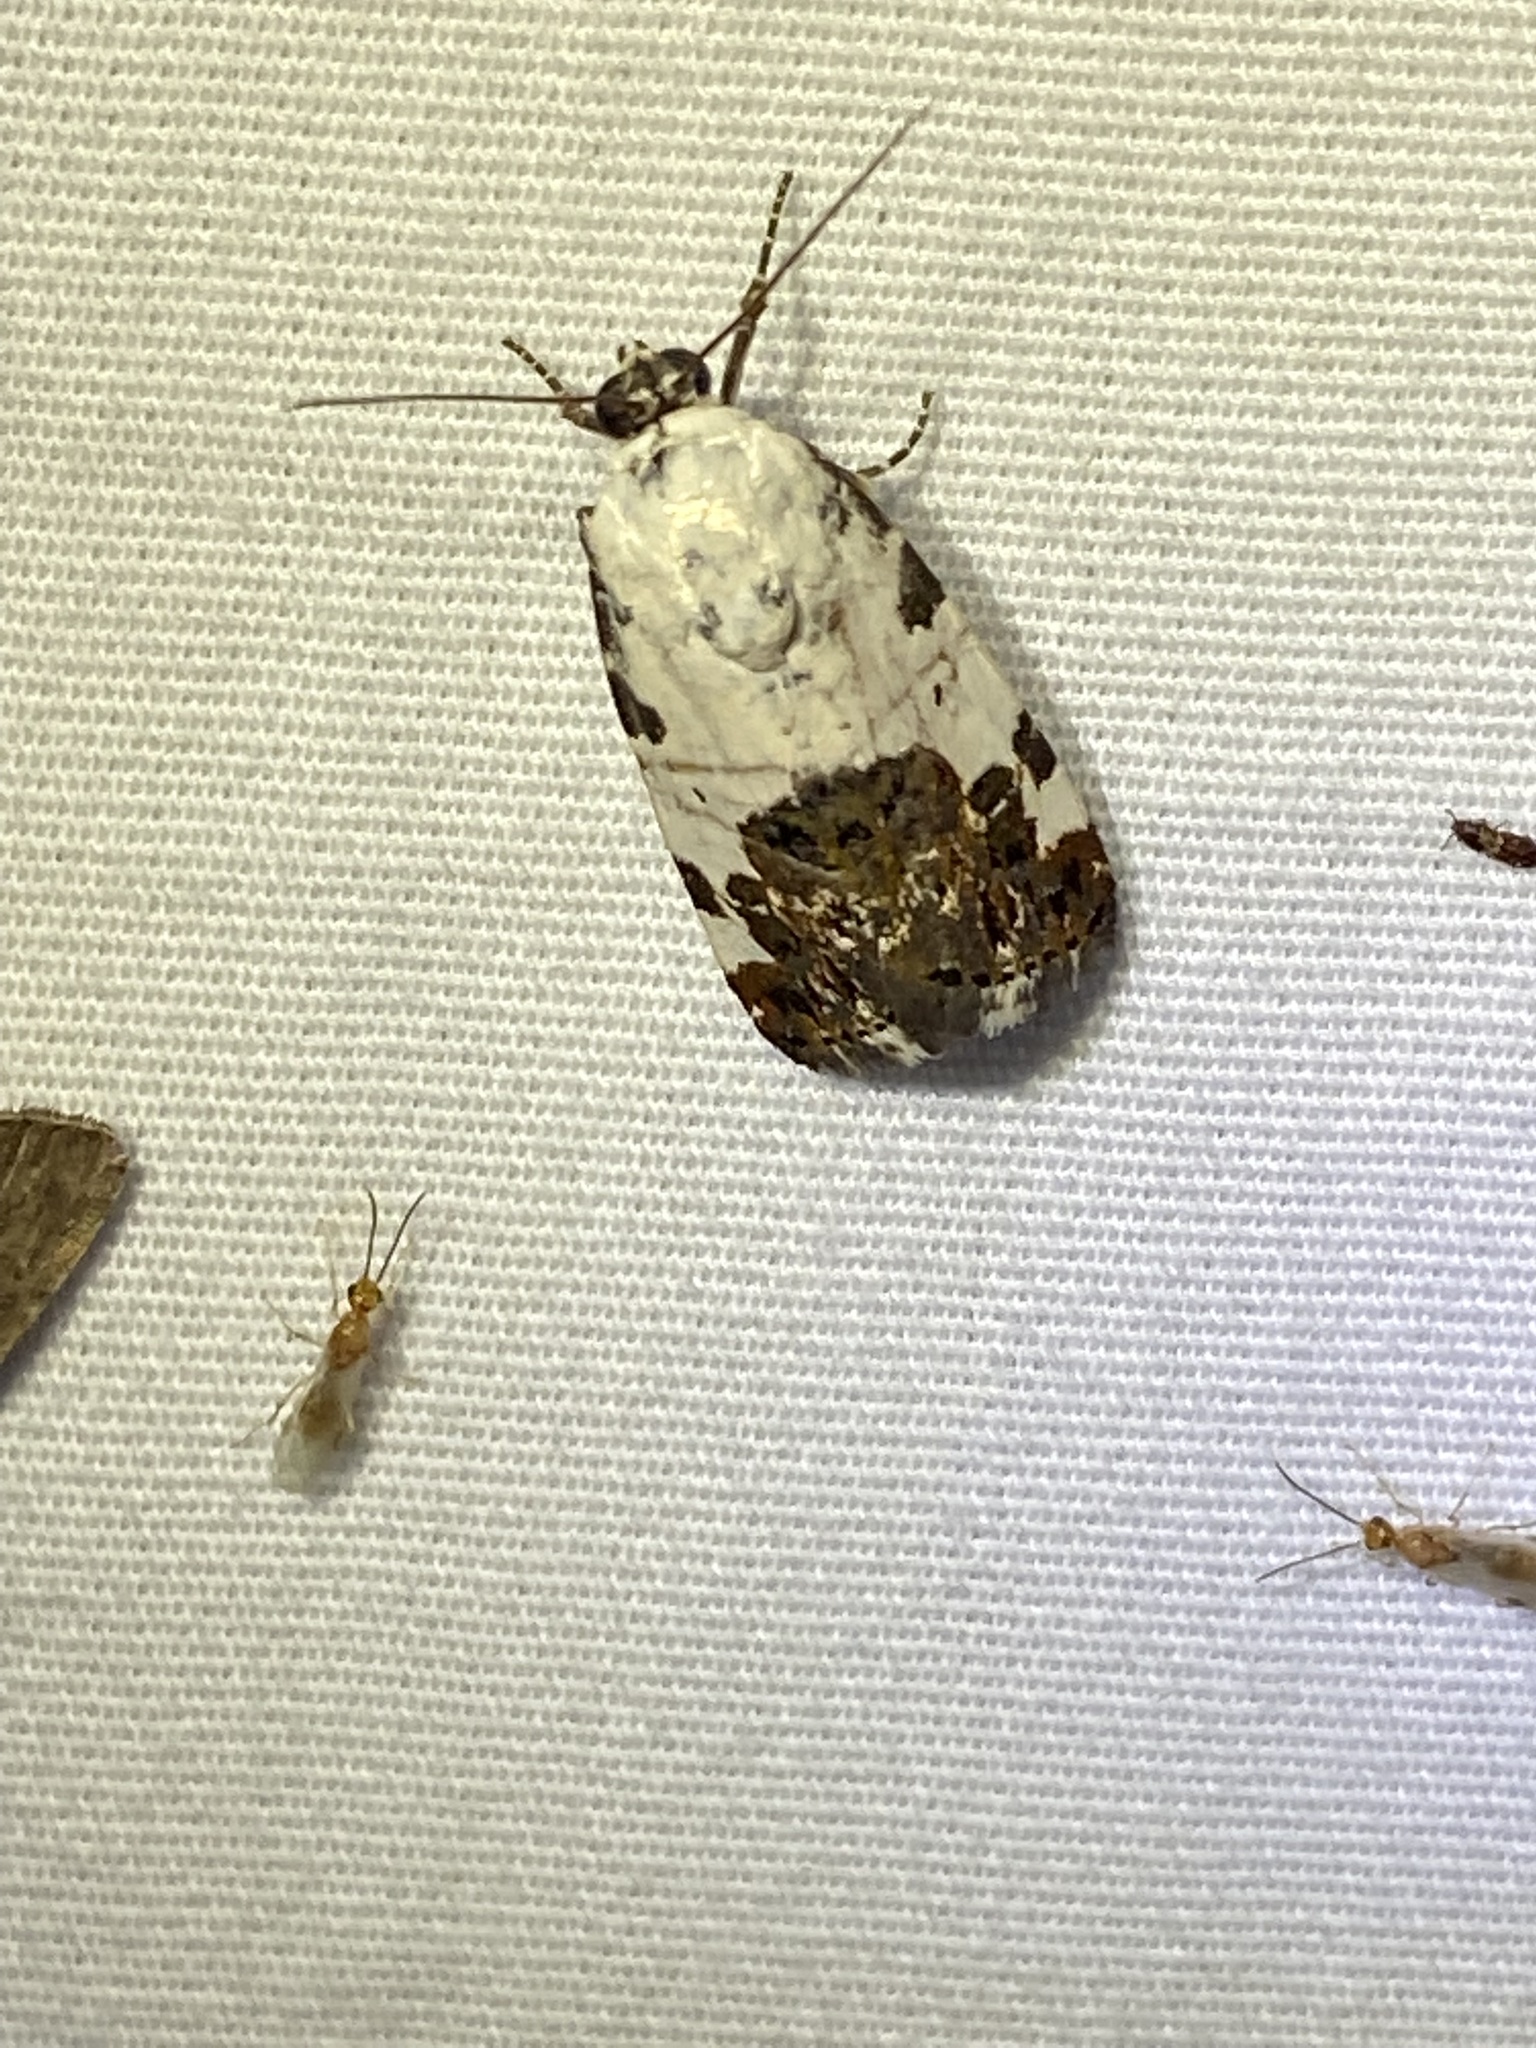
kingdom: Animalia
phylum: Arthropoda
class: Insecta
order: Lepidoptera
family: Noctuidae
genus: Acontia
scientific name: Acontia aprica
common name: Nun
